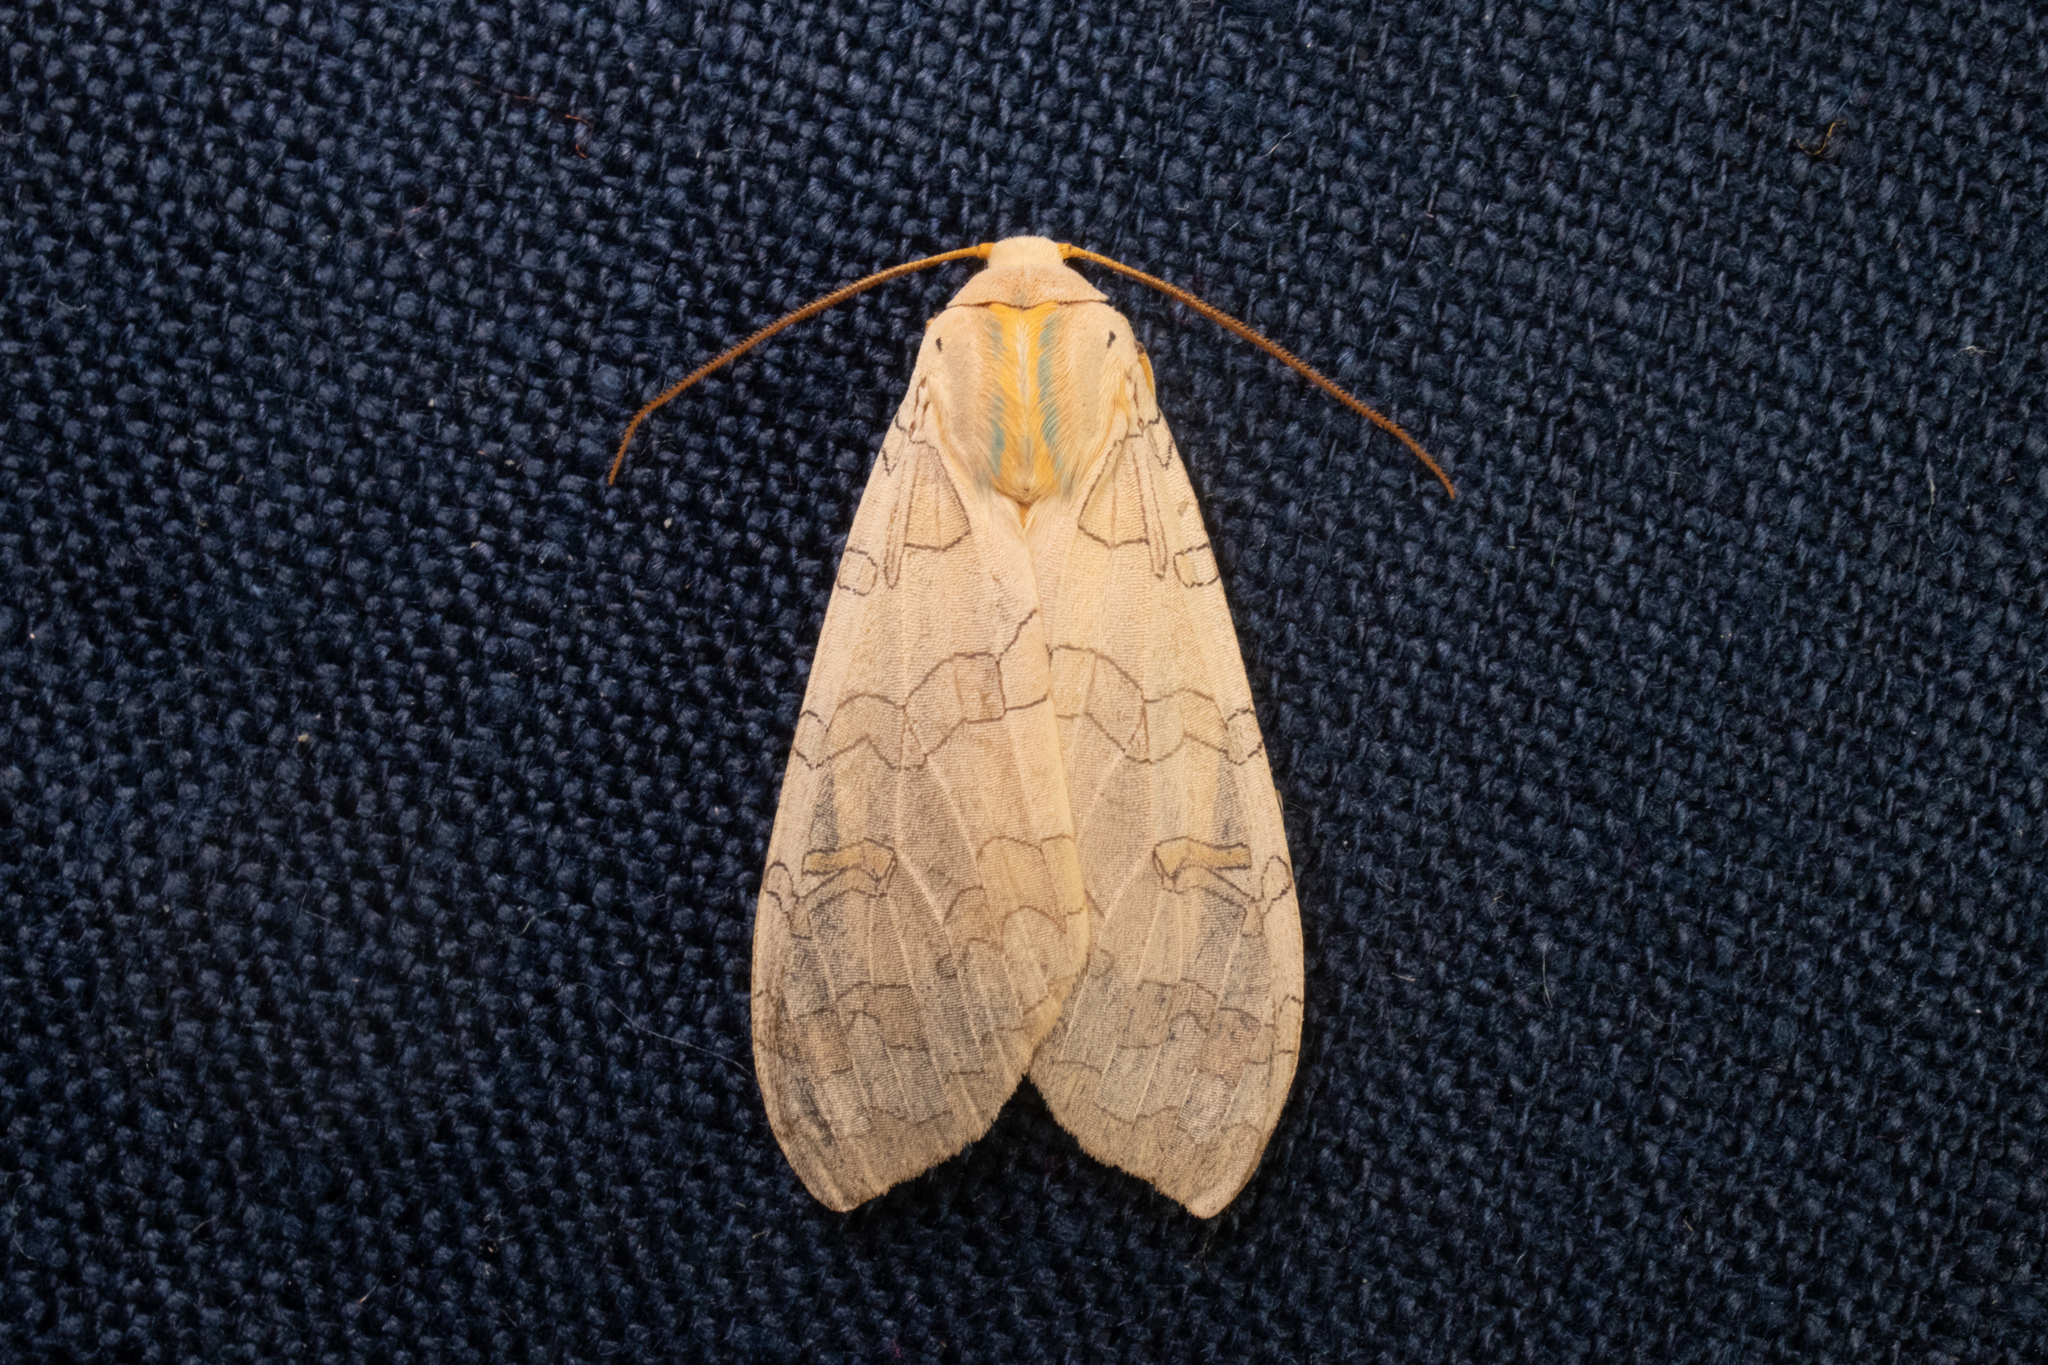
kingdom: Animalia
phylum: Arthropoda
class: Insecta
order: Lepidoptera
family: Erebidae
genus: Halysidota
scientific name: Halysidota
